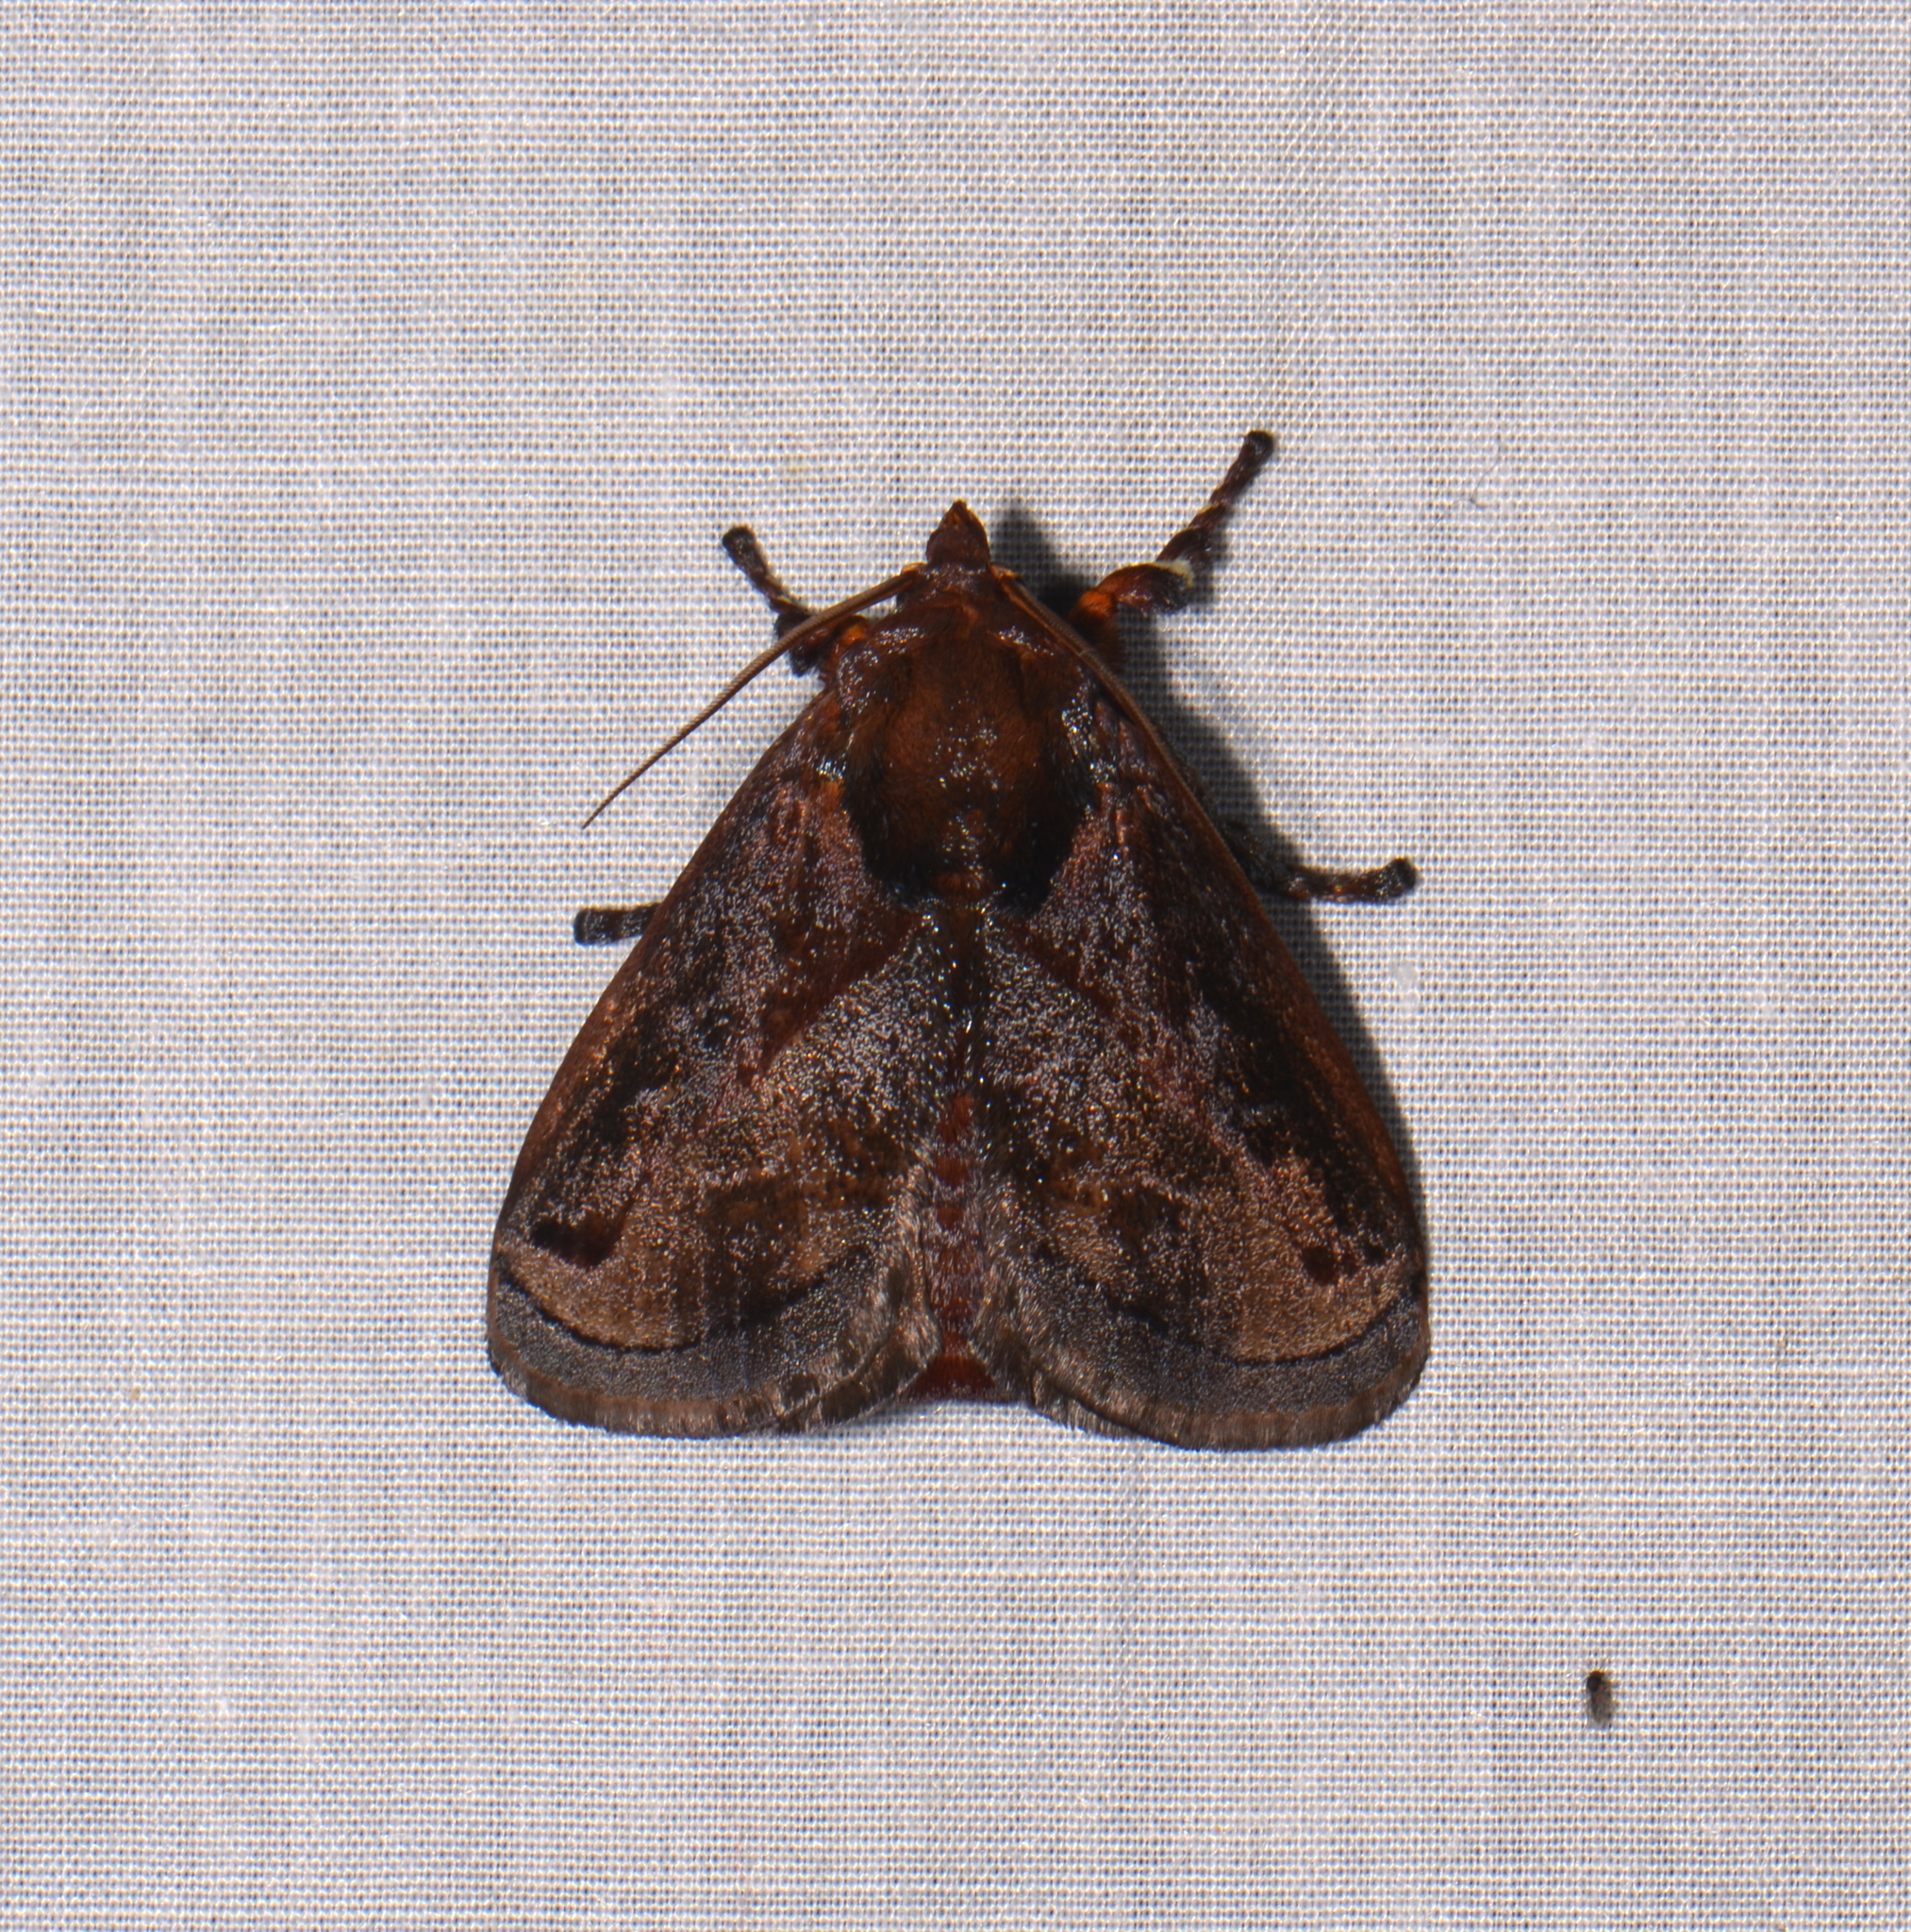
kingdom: Animalia
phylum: Arthropoda
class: Insecta
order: Lepidoptera
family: Limacodidae
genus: Phocoderma
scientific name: Phocoderma velutina
